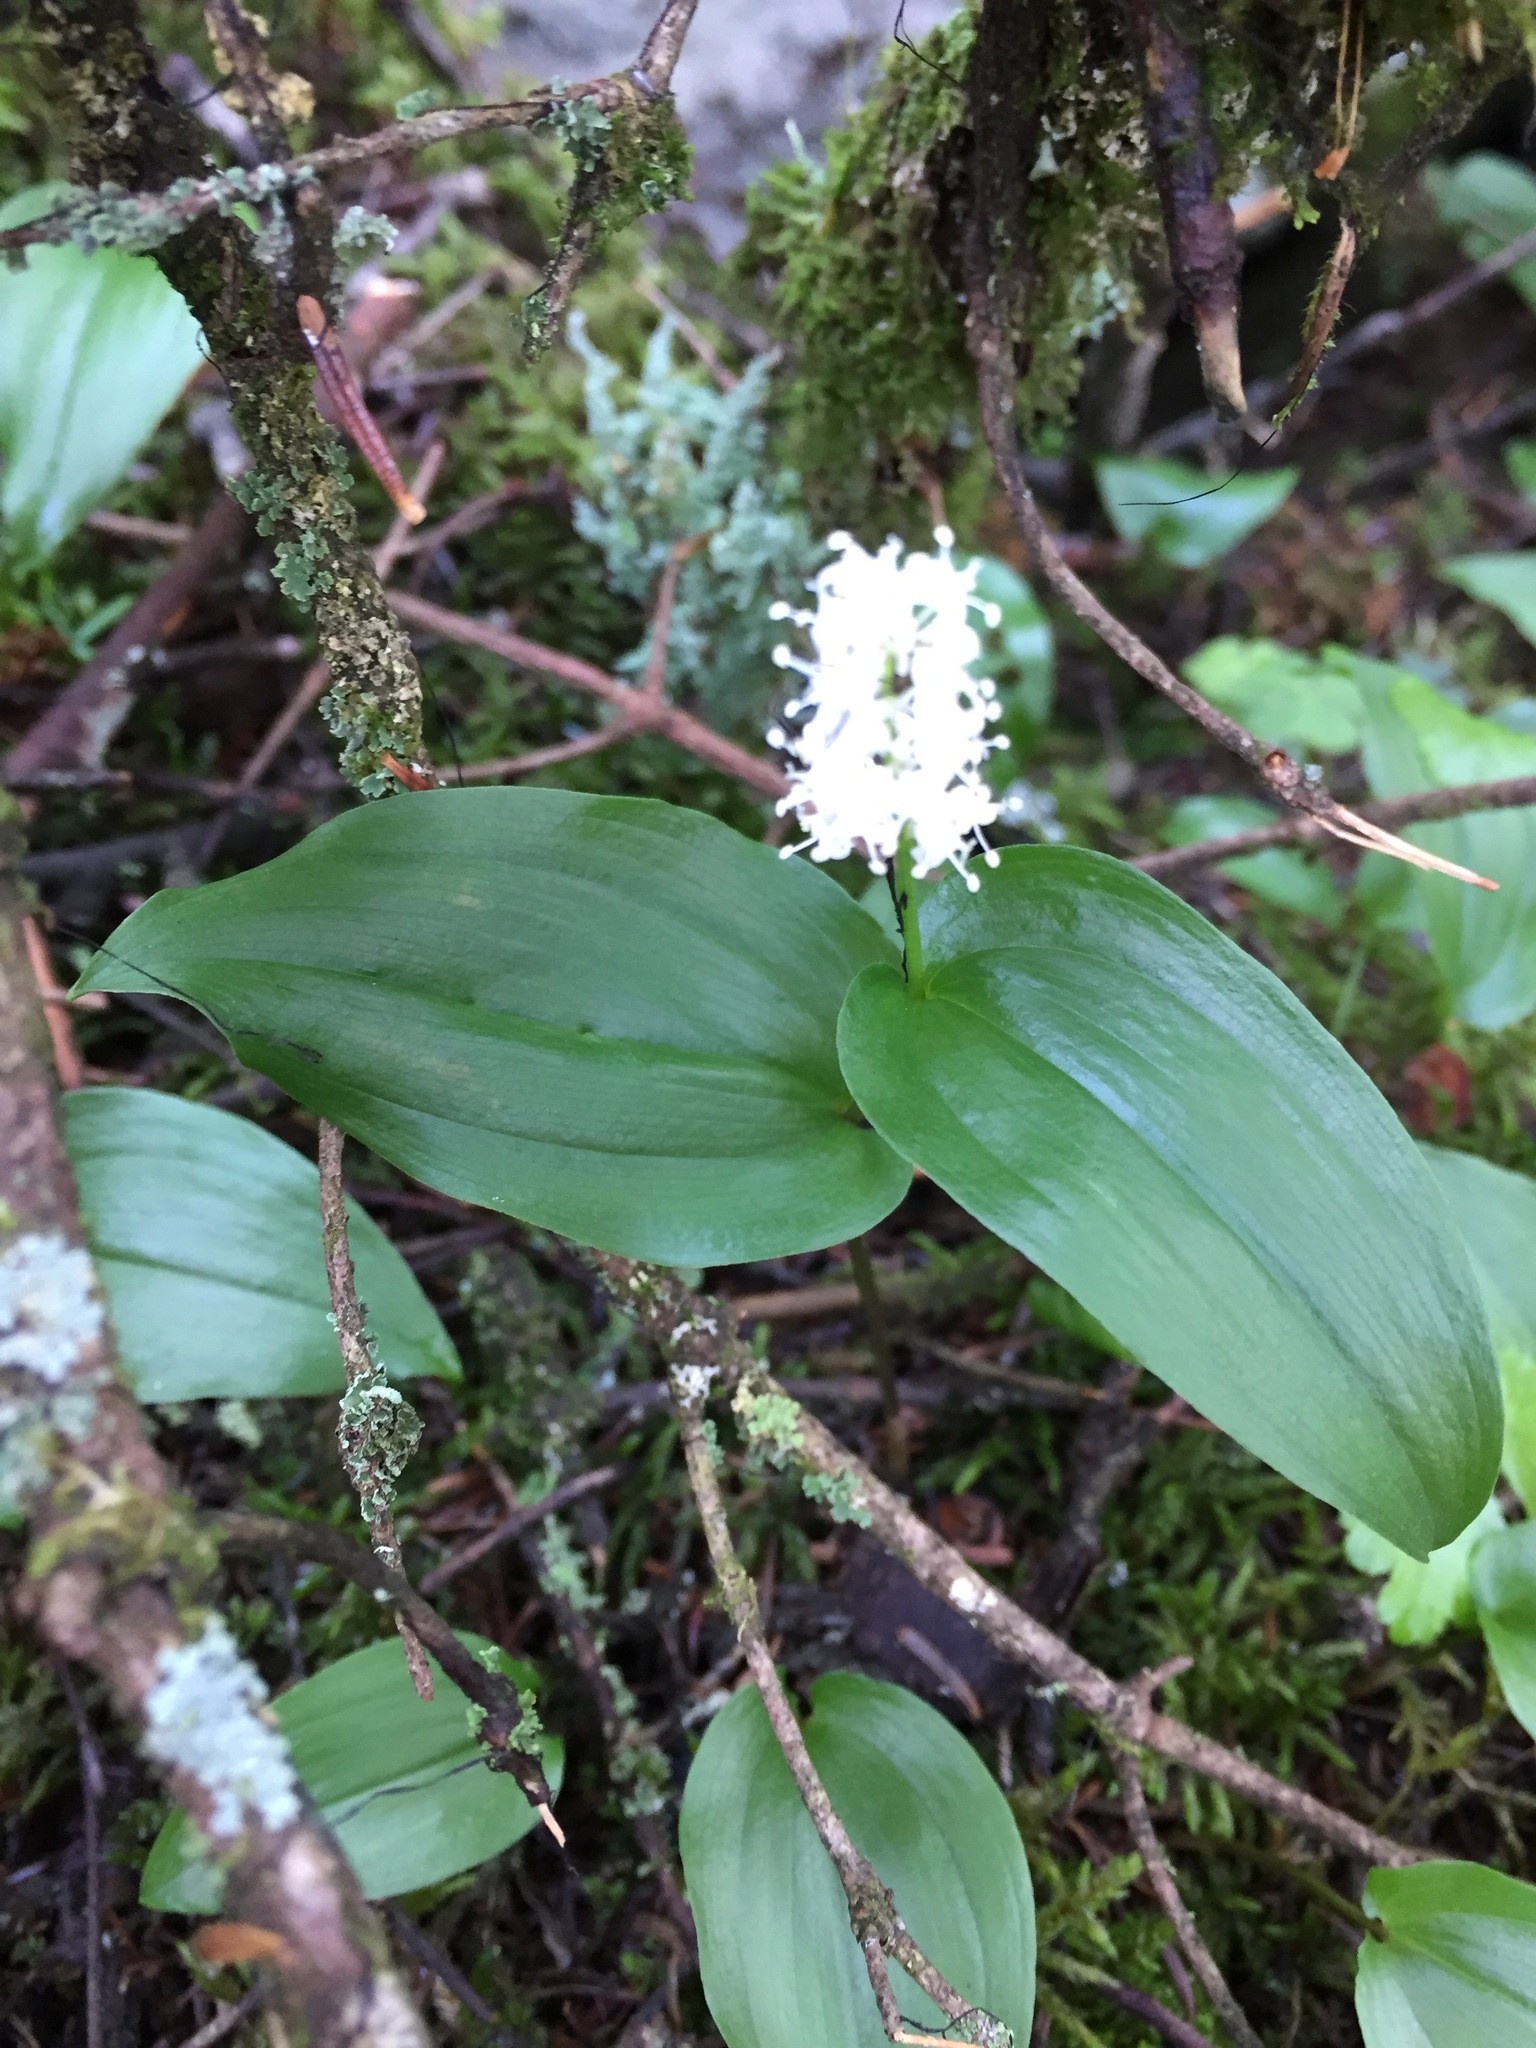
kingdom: Plantae
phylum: Tracheophyta
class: Liliopsida
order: Asparagales
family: Asparagaceae
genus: Maianthemum
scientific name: Maianthemum canadense
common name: False lily-of-the-valley
